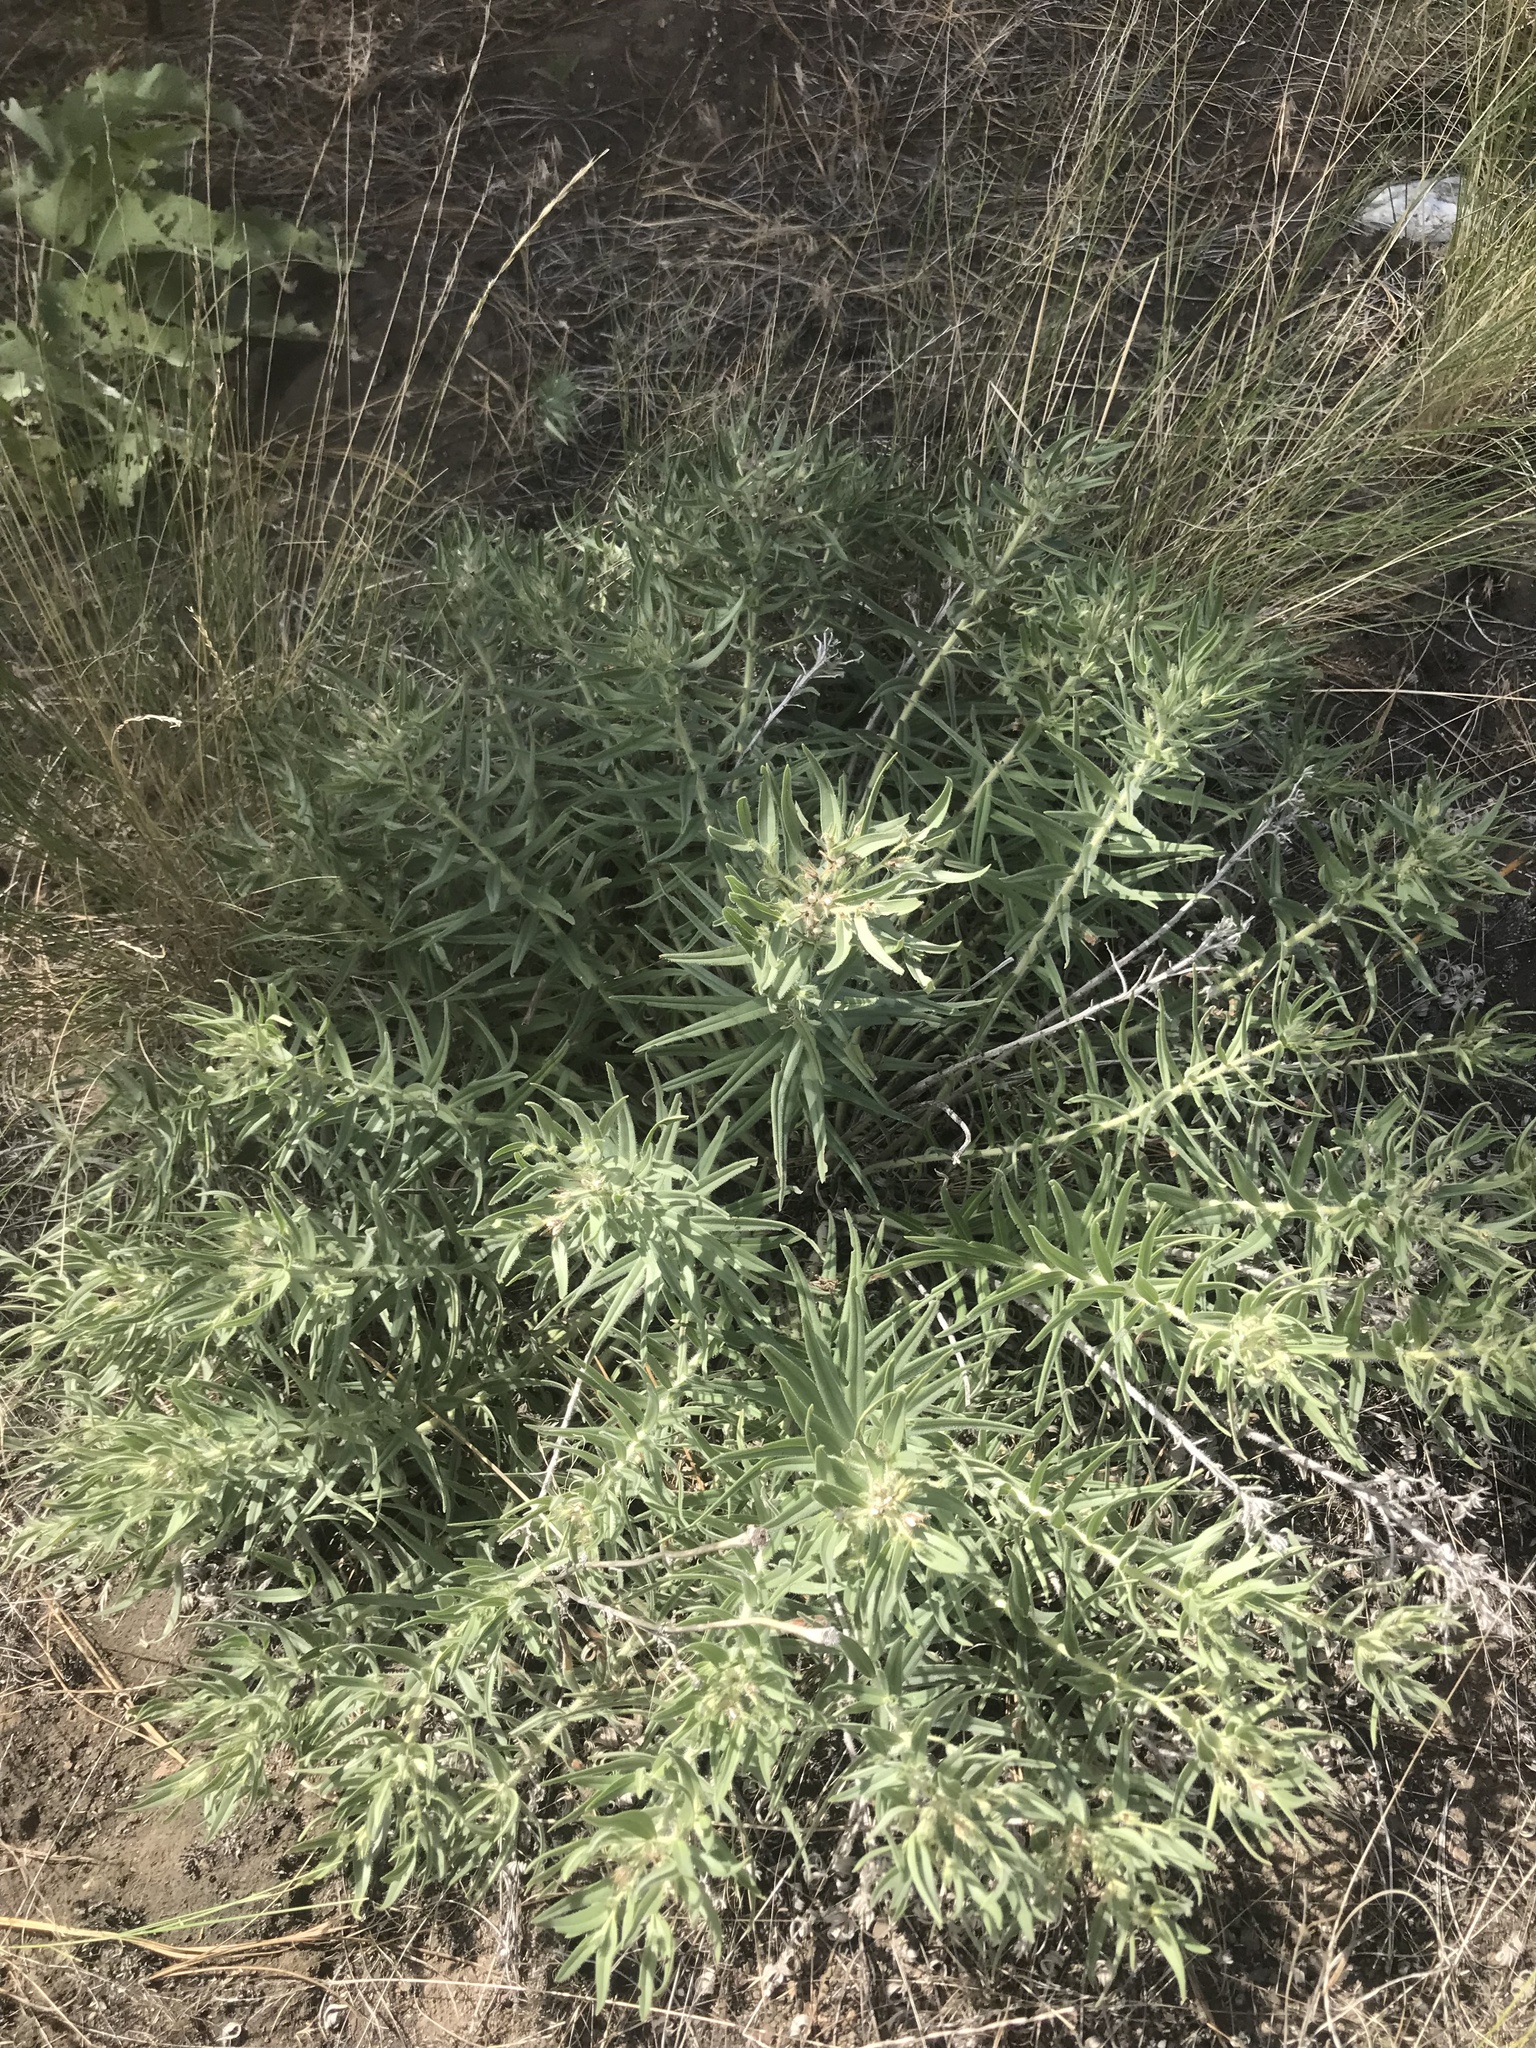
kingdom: Plantae
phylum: Tracheophyta
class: Magnoliopsida
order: Boraginales
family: Boraginaceae
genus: Lithospermum
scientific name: Lithospermum ruderale
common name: Western gromwell
